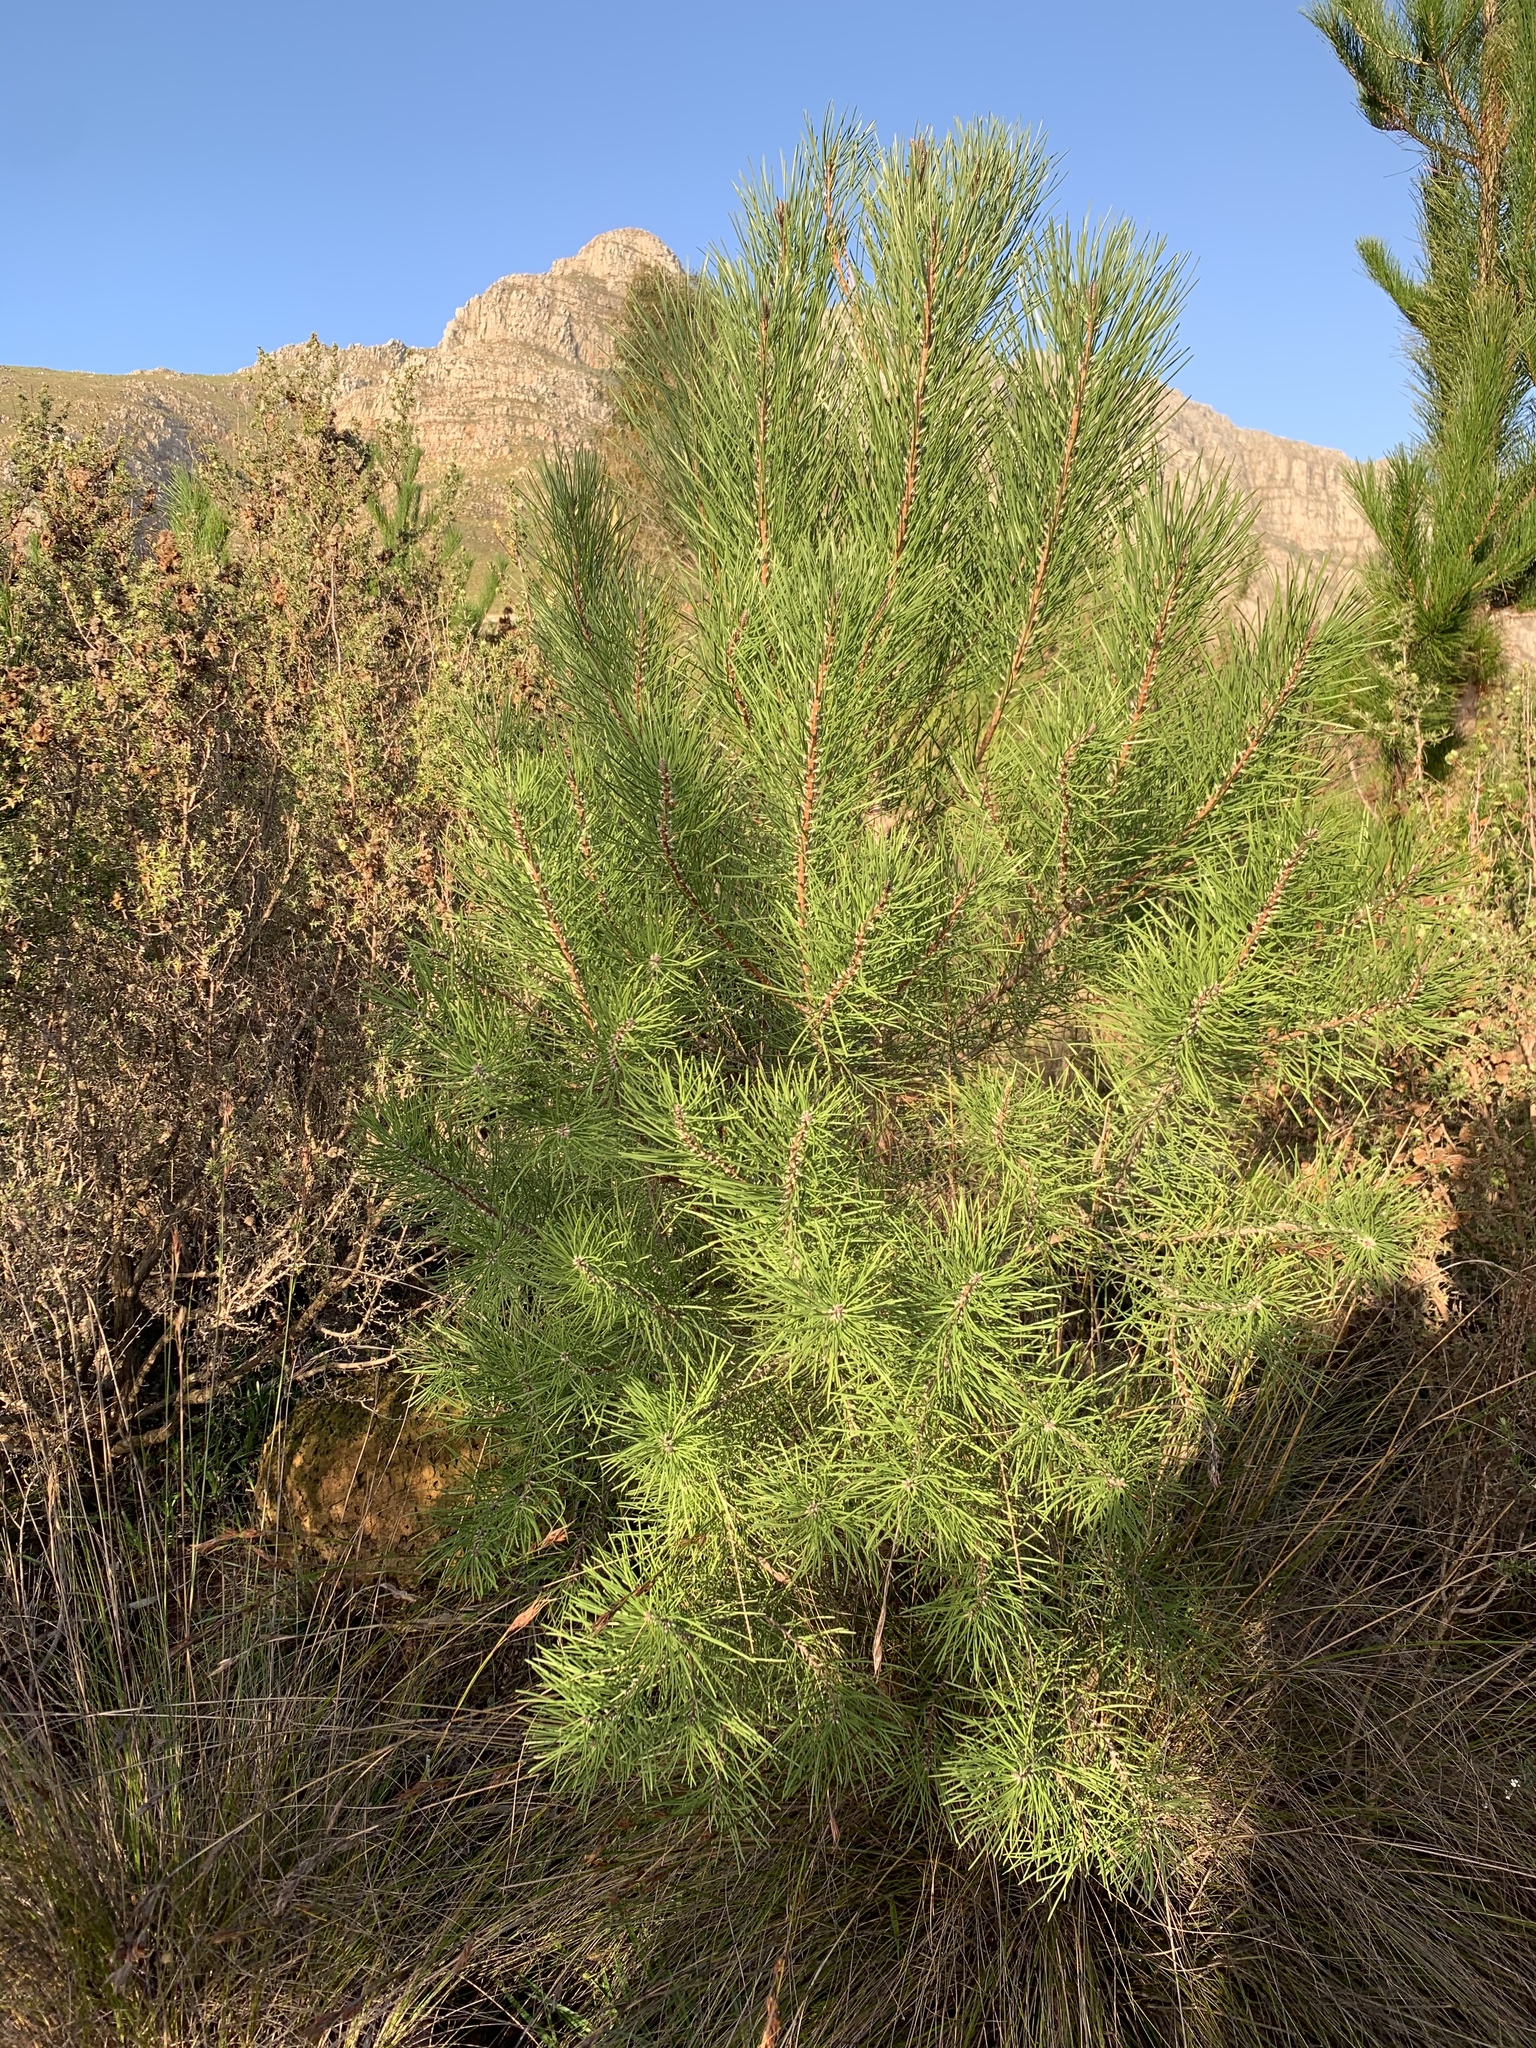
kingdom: Plantae
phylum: Tracheophyta
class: Pinopsida
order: Pinales
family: Pinaceae
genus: Pinus
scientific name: Pinus pinaster
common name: Maritime pine
